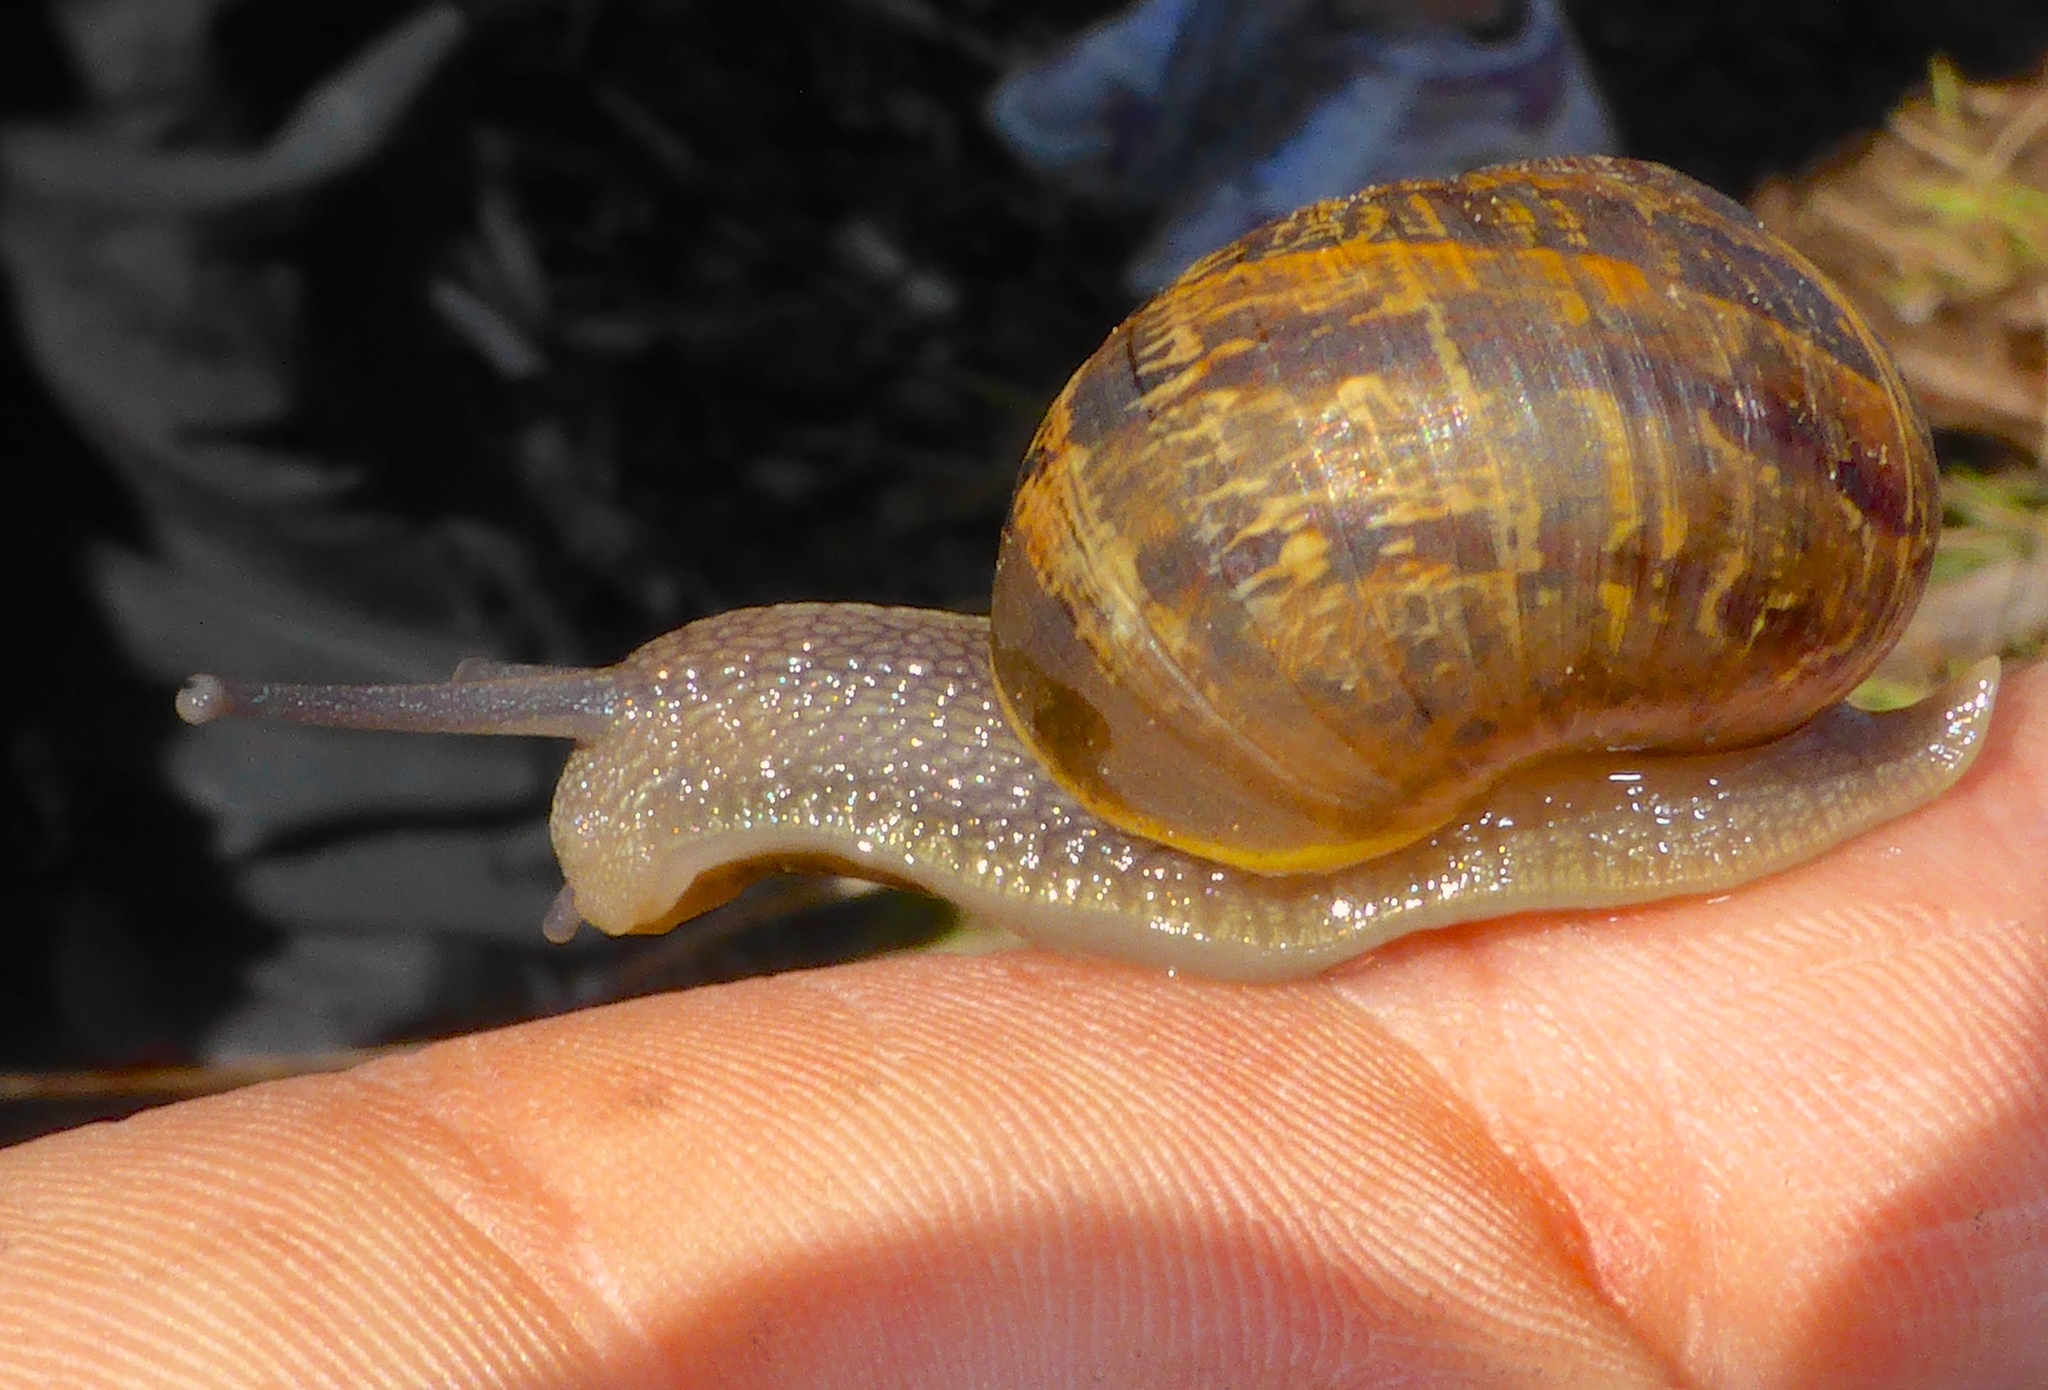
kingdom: Animalia
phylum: Mollusca
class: Gastropoda
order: Stylommatophora
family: Helicidae
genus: Cornu
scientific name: Cornu aspersum
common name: Brown garden snail
